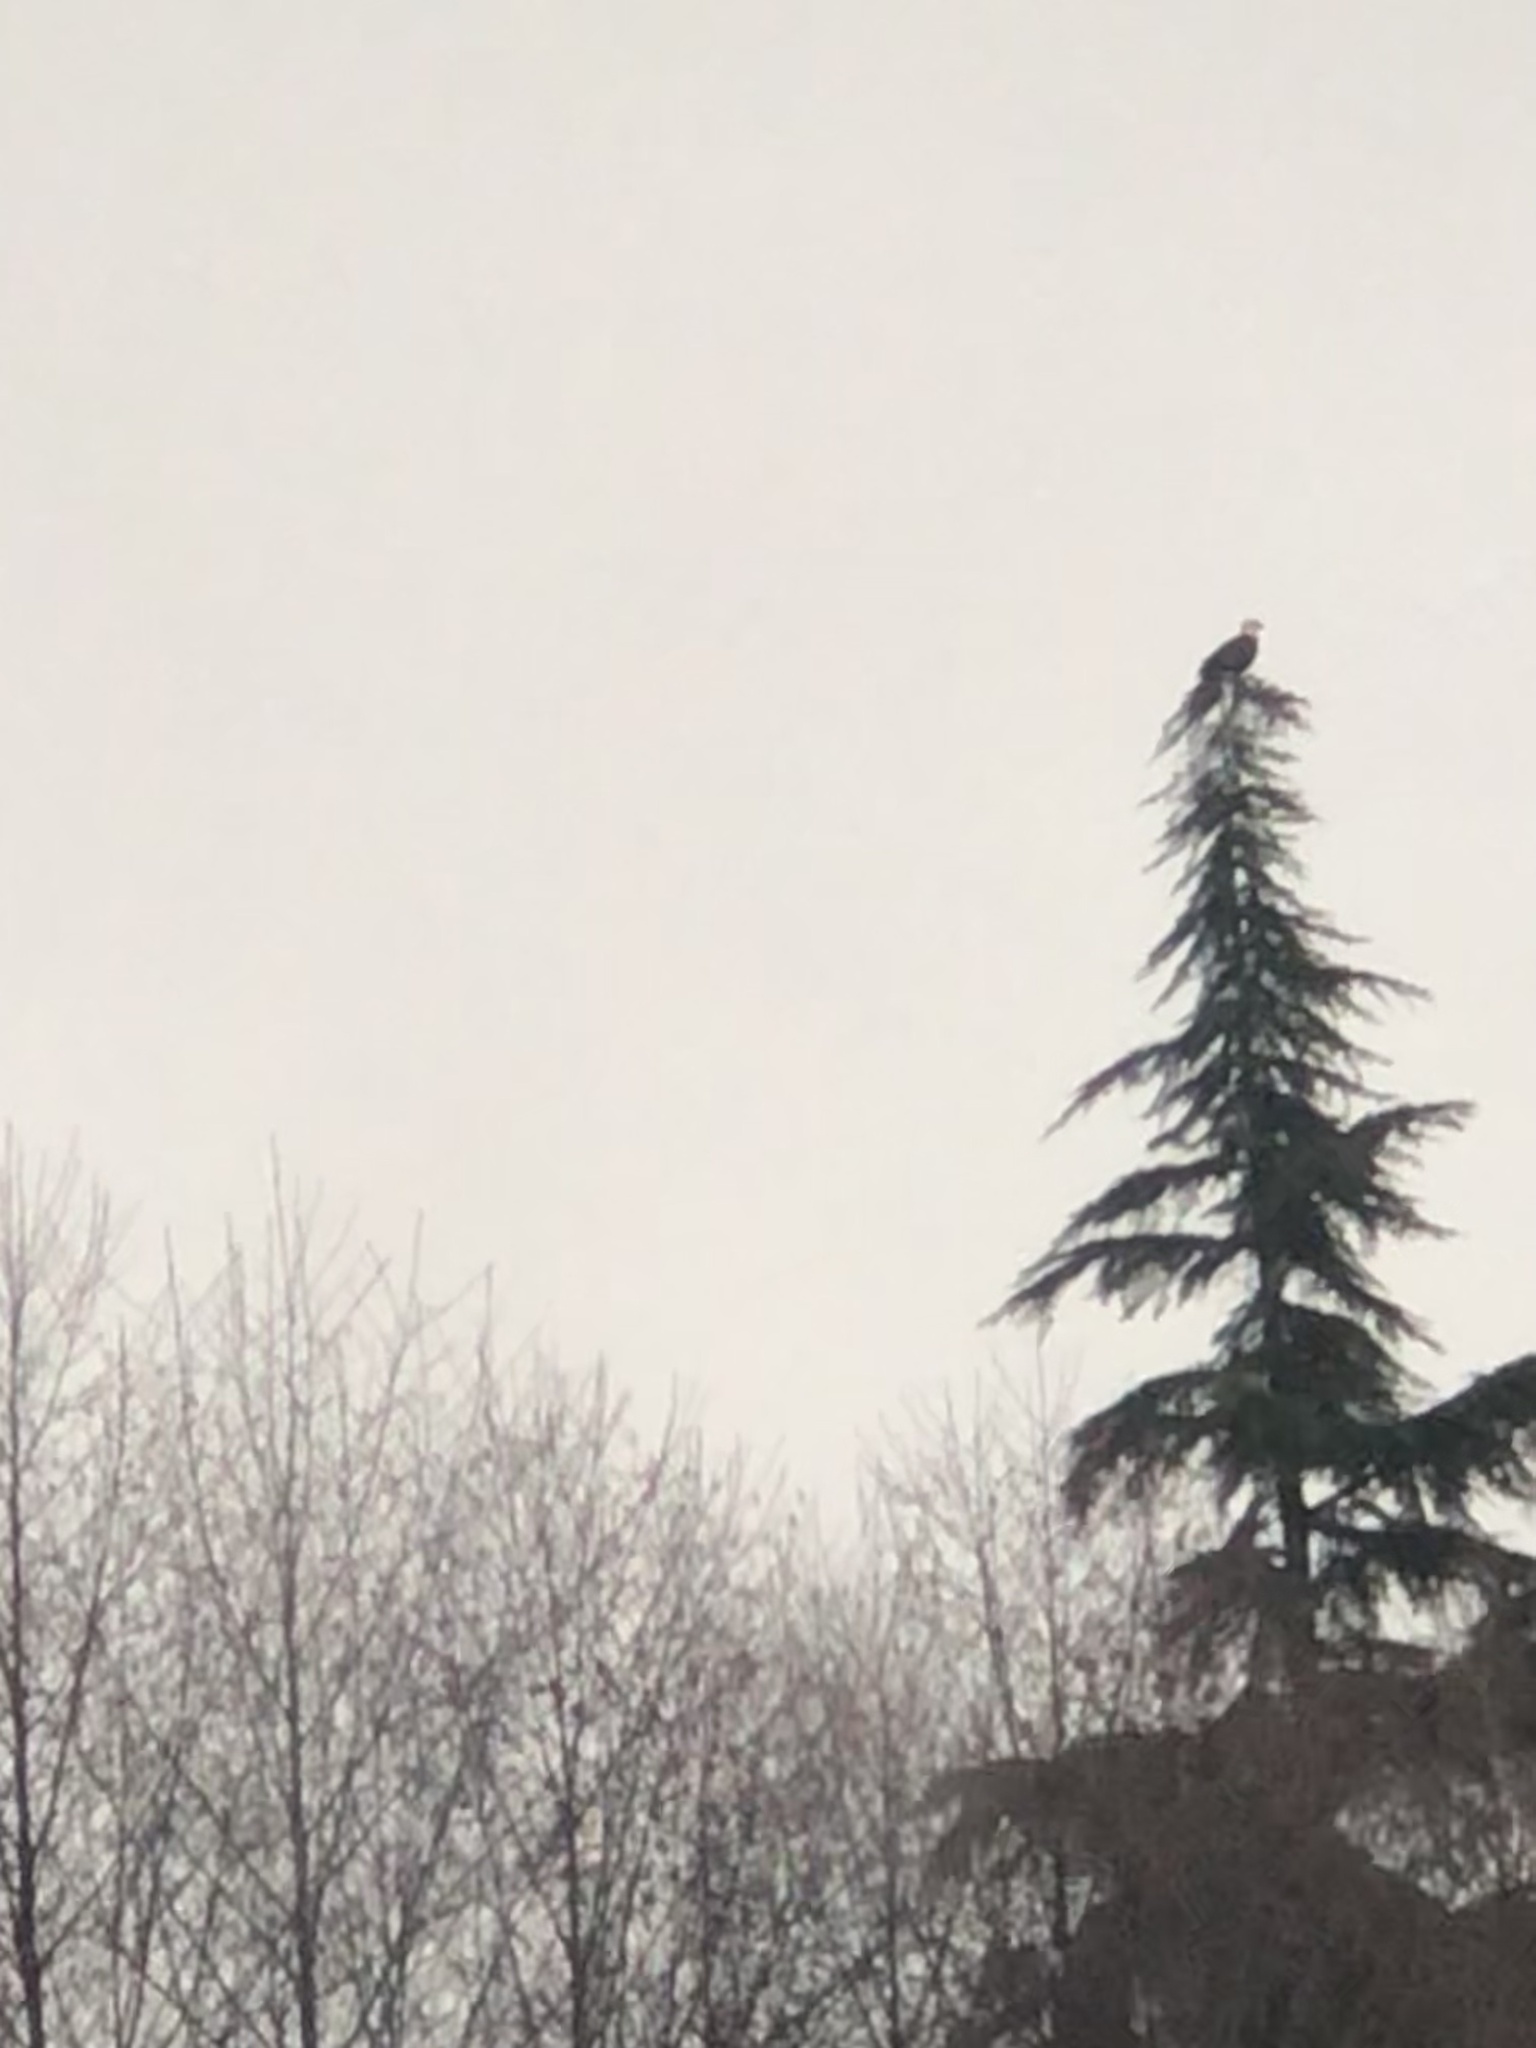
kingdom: Animalia
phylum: Chordata
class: Aves
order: Accipitriformes
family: Accipitridae
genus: Haliaeetus
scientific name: Haliaeetus leucocephalus
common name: Bald eagle
